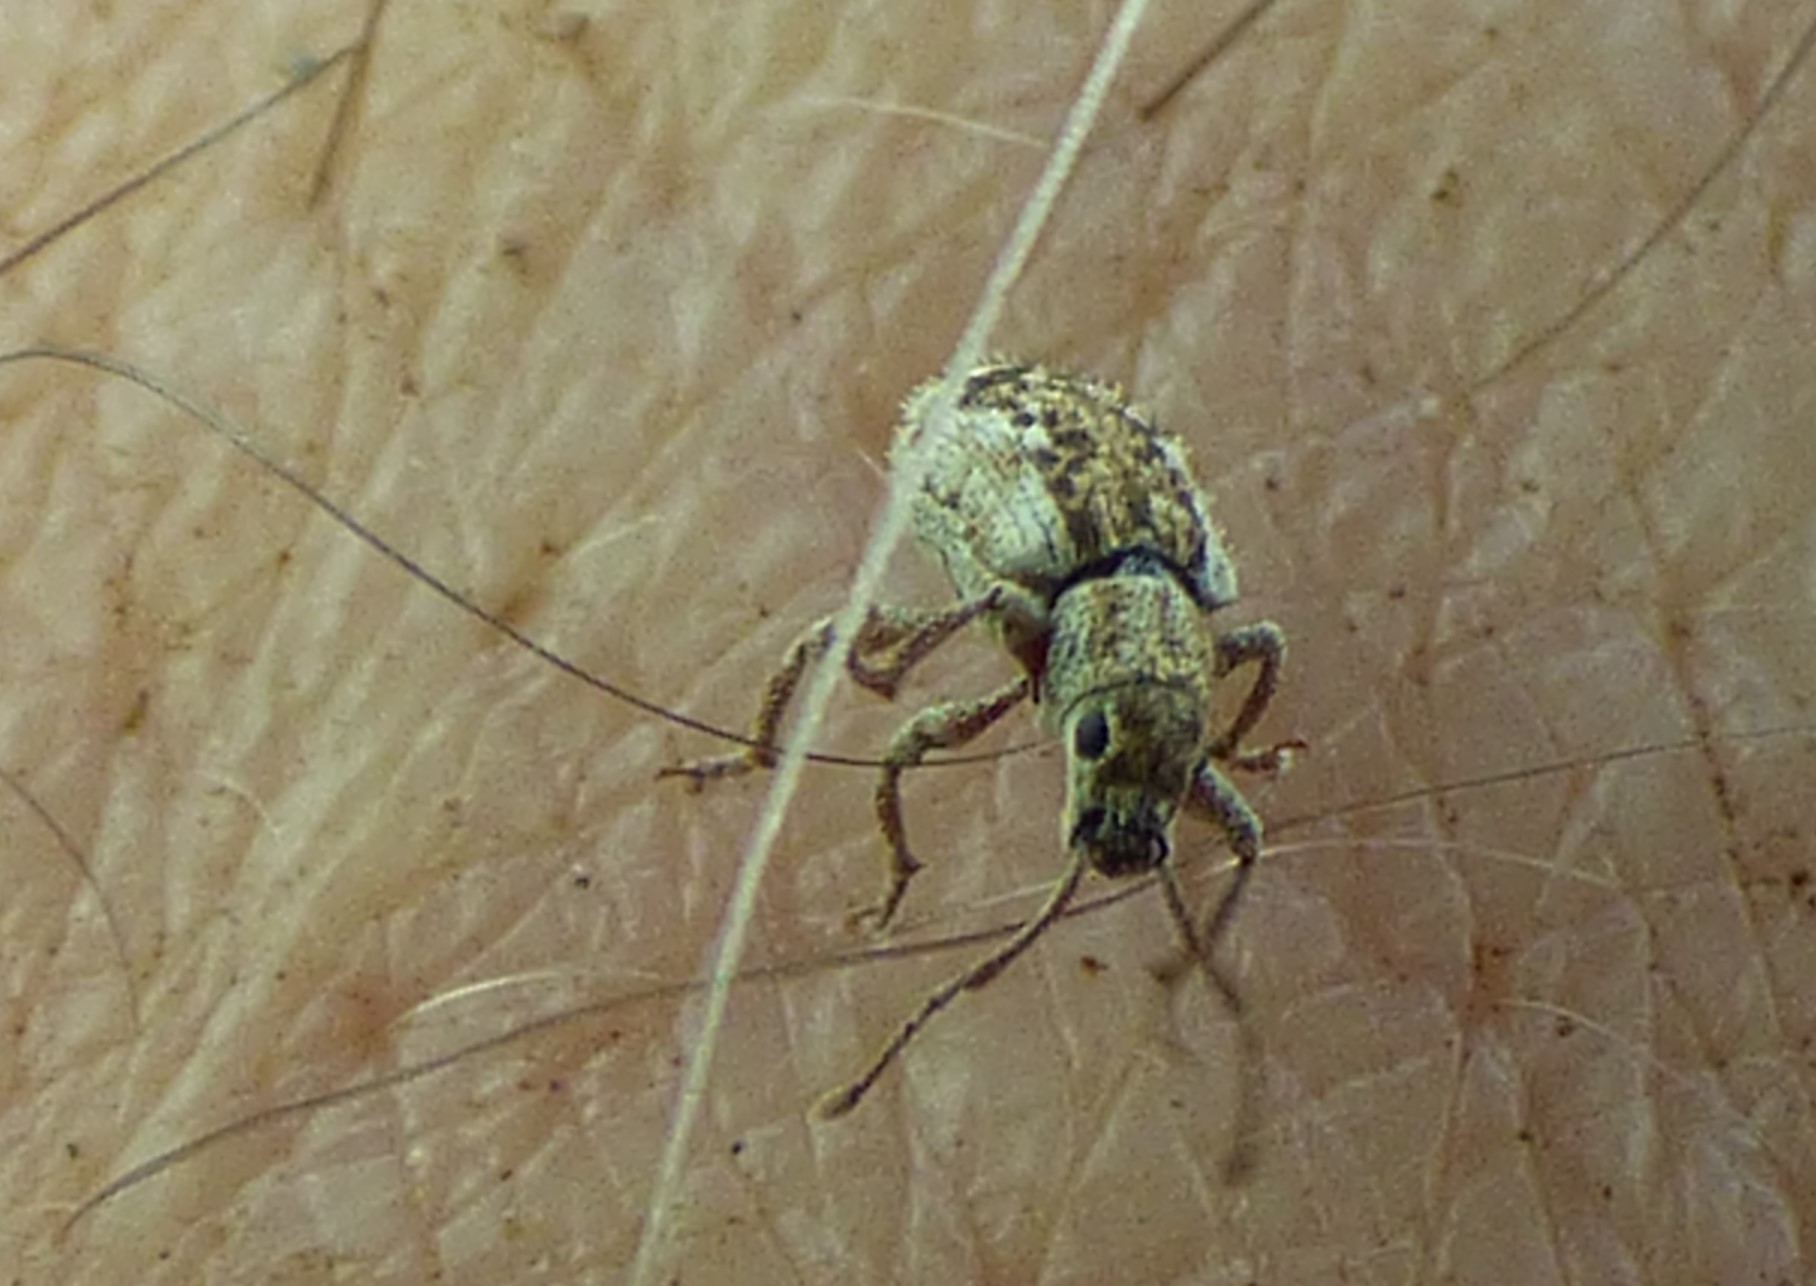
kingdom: Animalia
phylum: Arthropoda
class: Insecta
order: Coleoptera
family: Curculionidae
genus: Pseudoedophrys
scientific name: Pseudoedophrys hilleri
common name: Weevil
